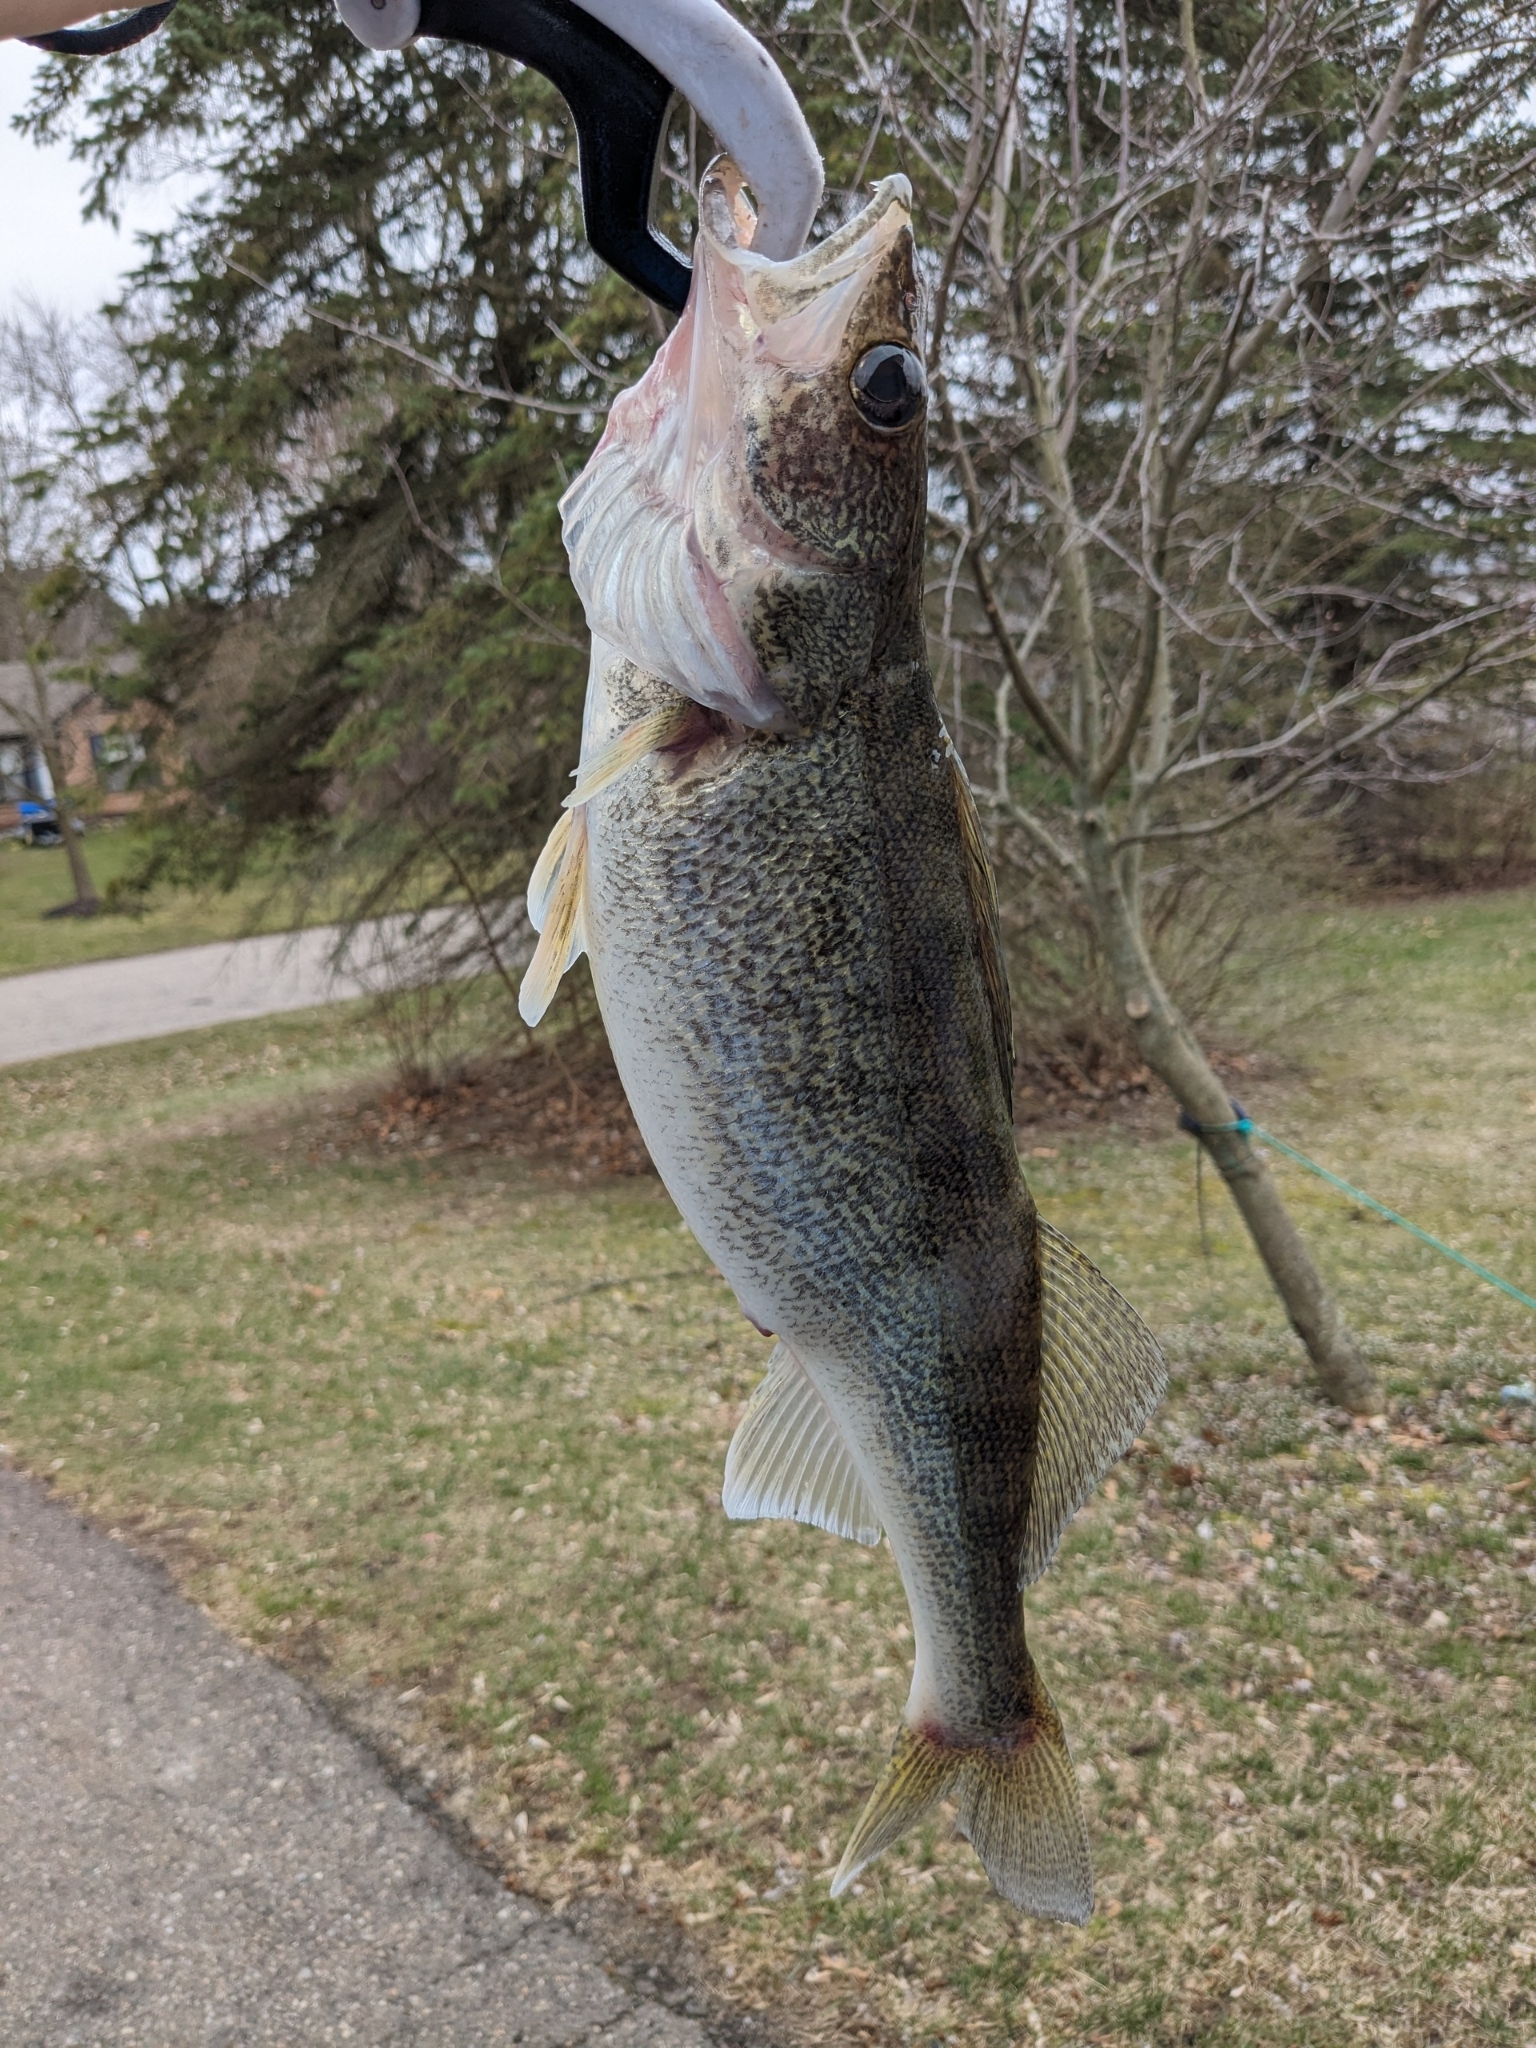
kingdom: Animalia
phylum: Chordata
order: Perciformes
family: Percidae
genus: Sander
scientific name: Sander vitreus
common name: Walleye
